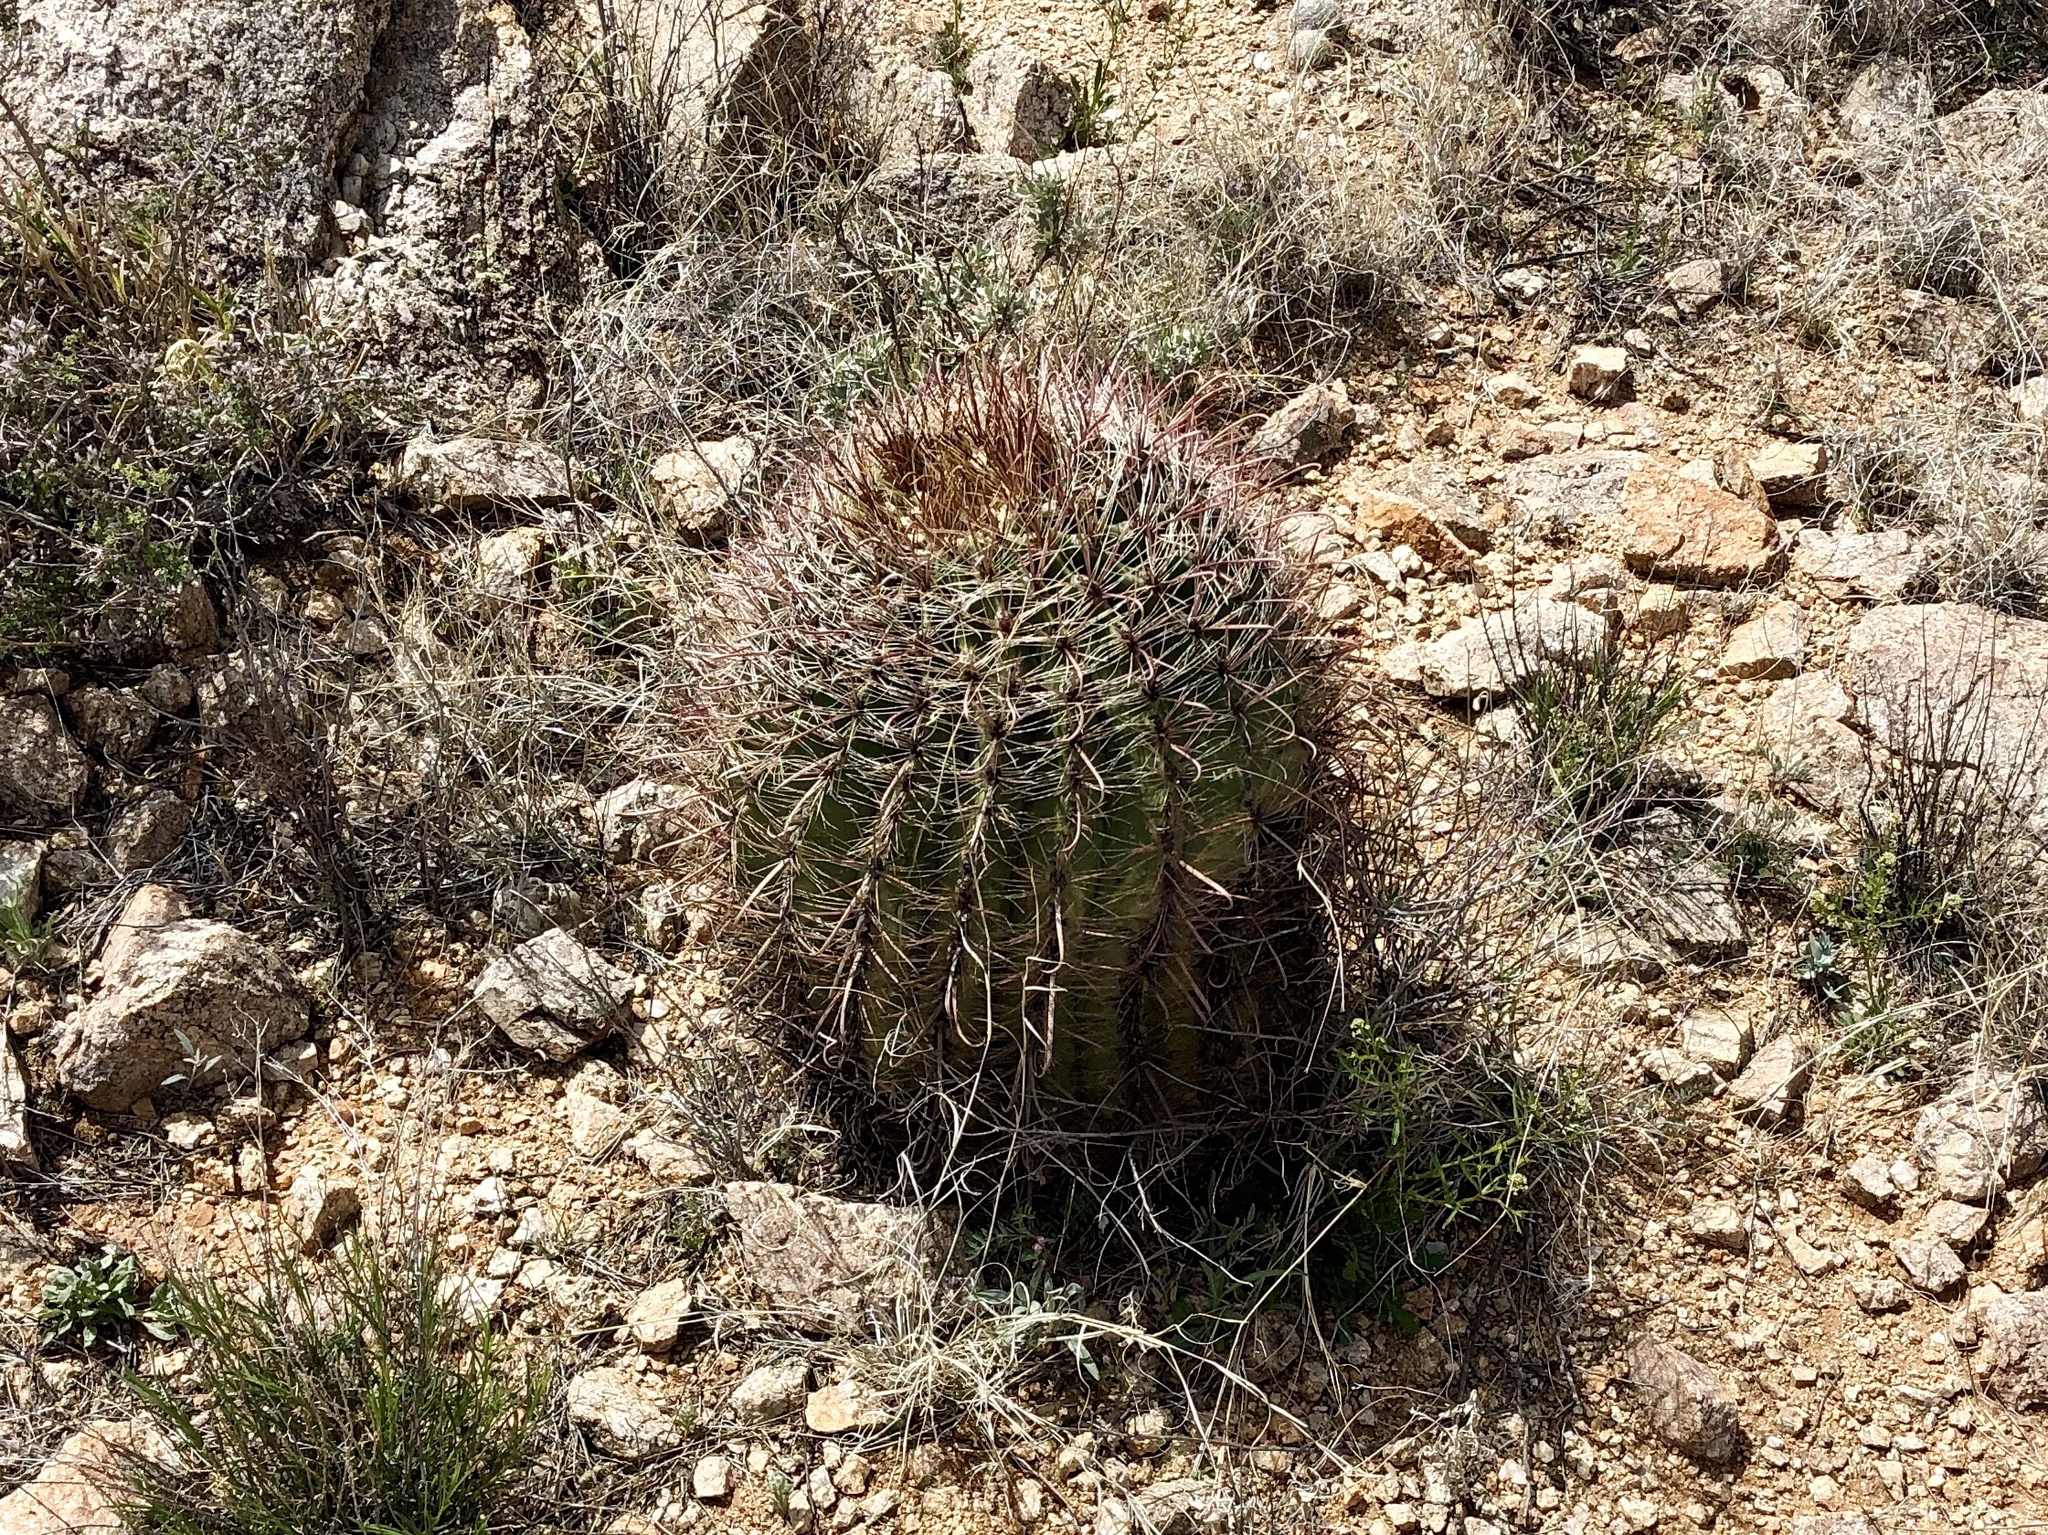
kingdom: Plantae
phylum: Tracheophyta
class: Magnoliopsida
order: Caryophyllales
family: Cactaceae
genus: Ferocactus
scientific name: Ferocactus wislizeni
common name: Candy barrel cactus
